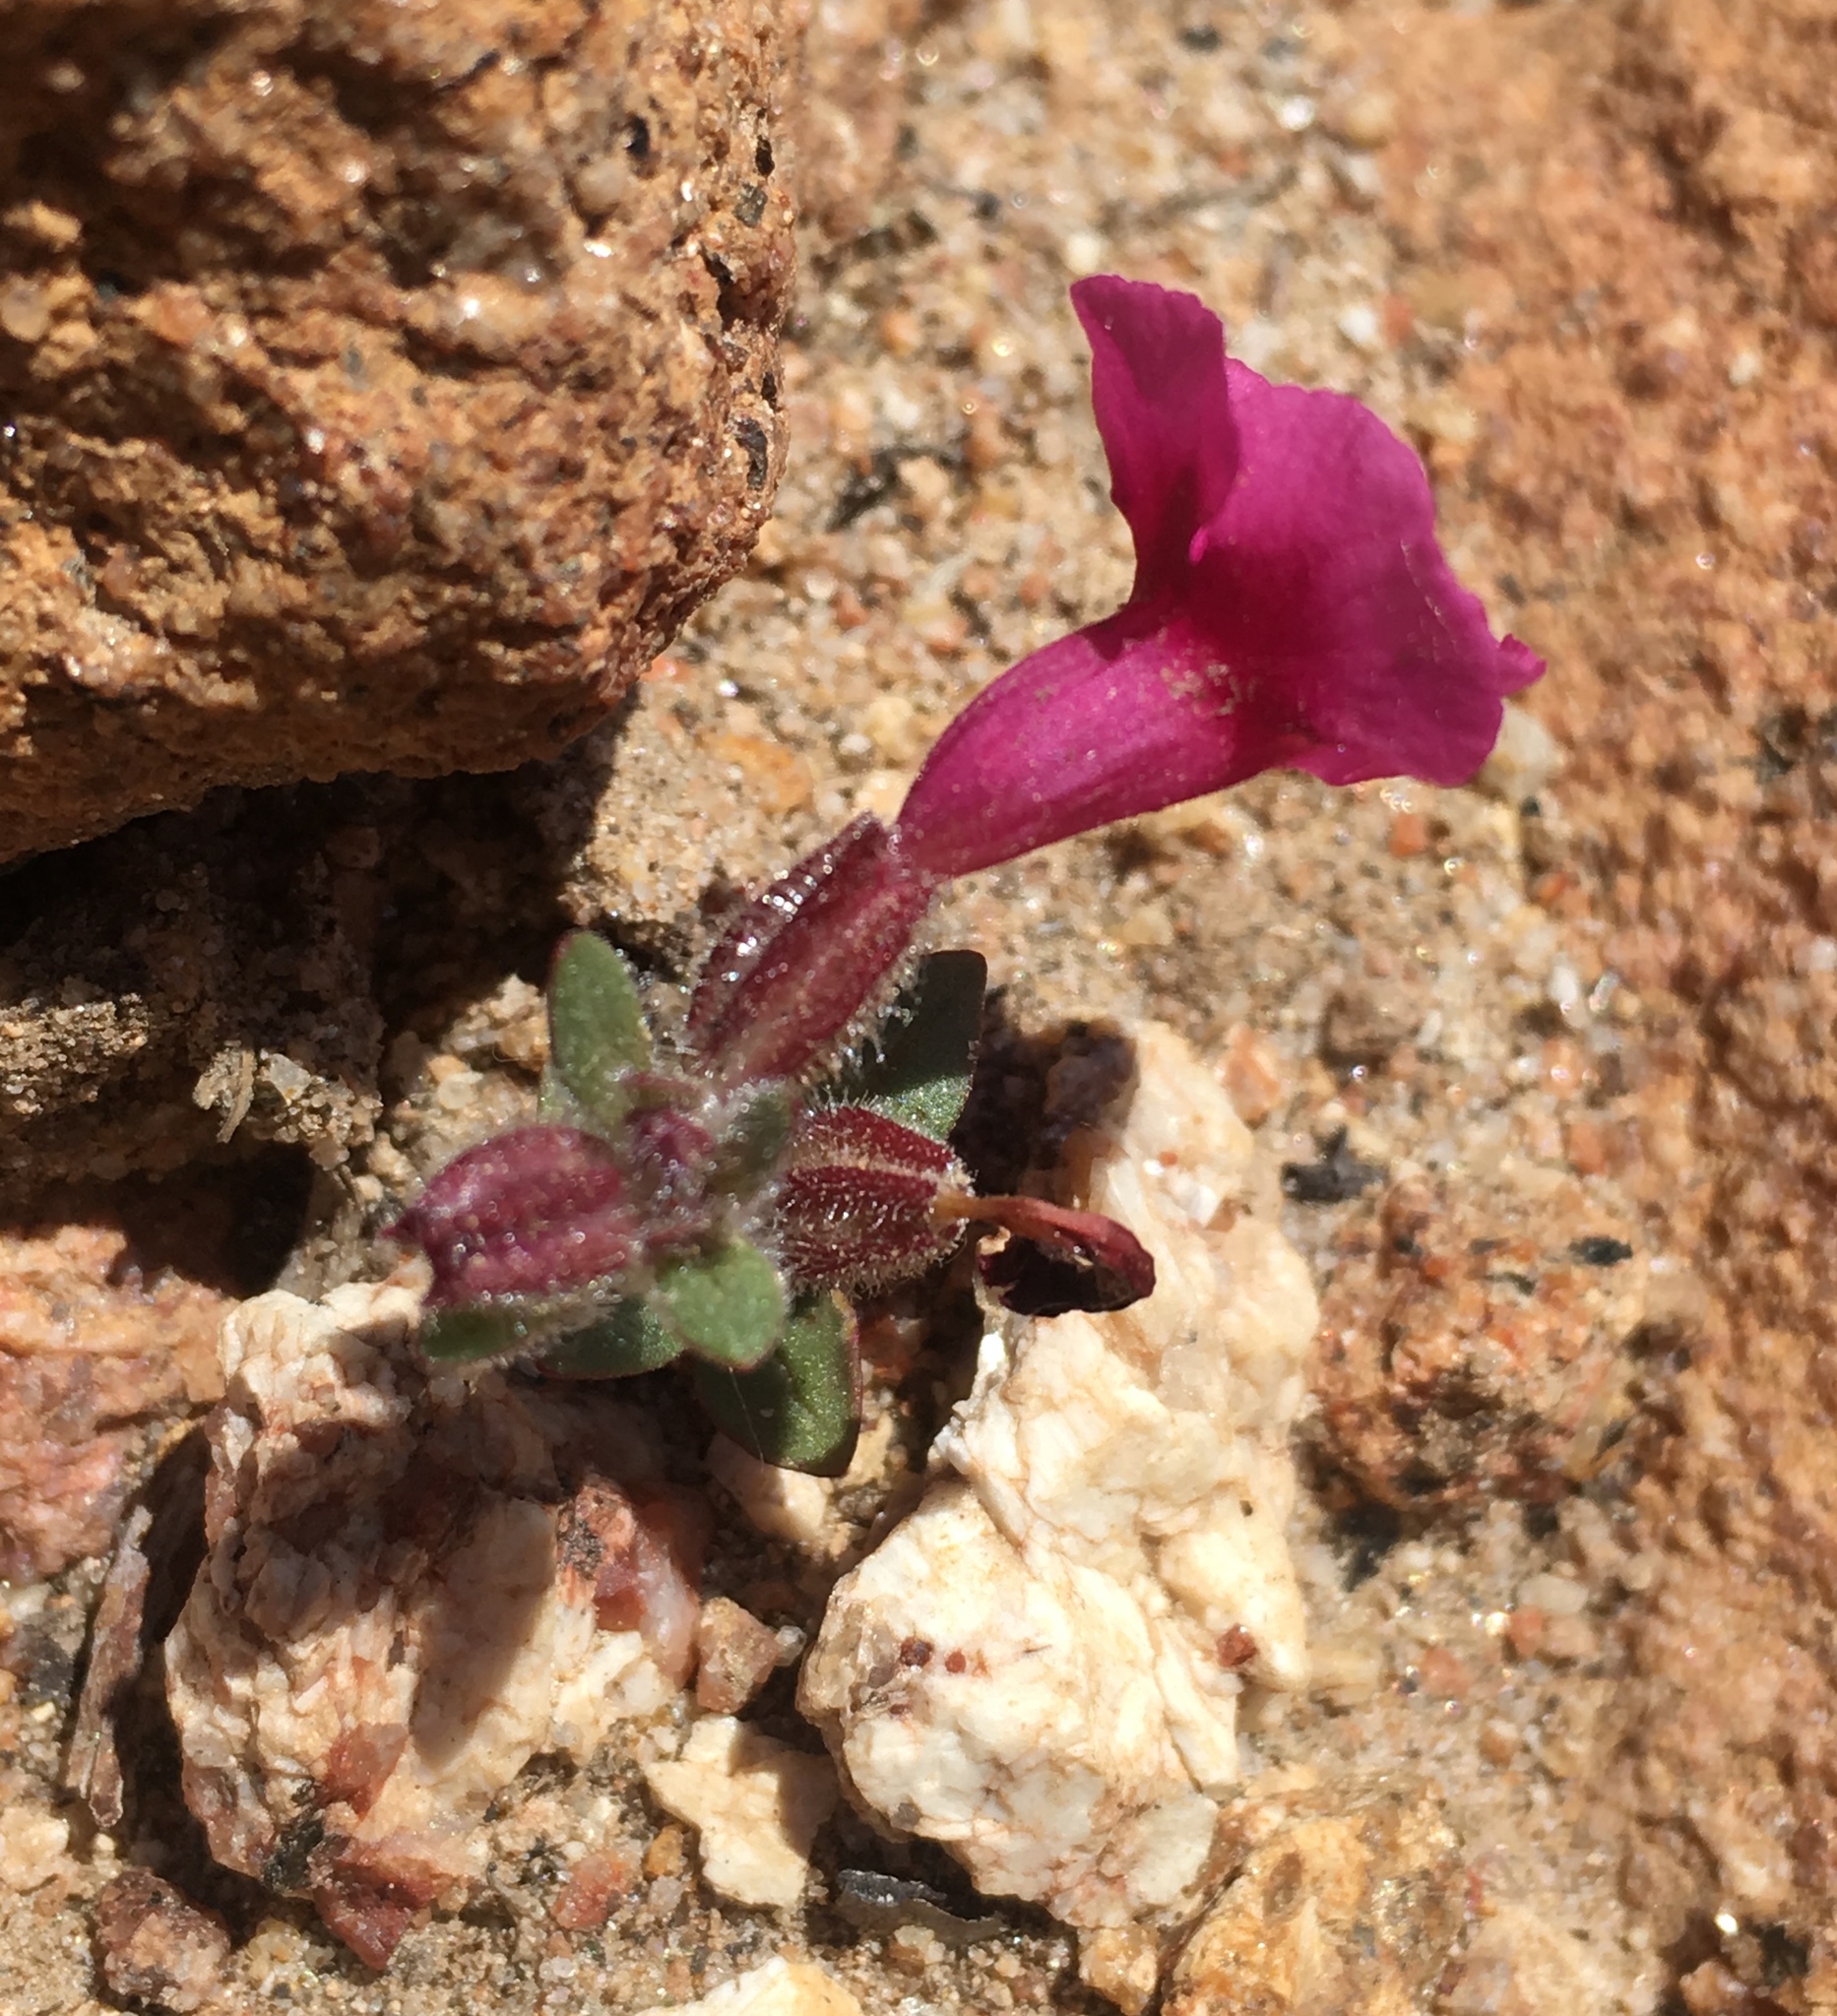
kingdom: Plantae
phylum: Tracheophyta
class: Magnoliopsida
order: Lamiales
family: Phrymaceae
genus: Diplacus
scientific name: Diplacus fremontii
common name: Fremont's monkey-flower
